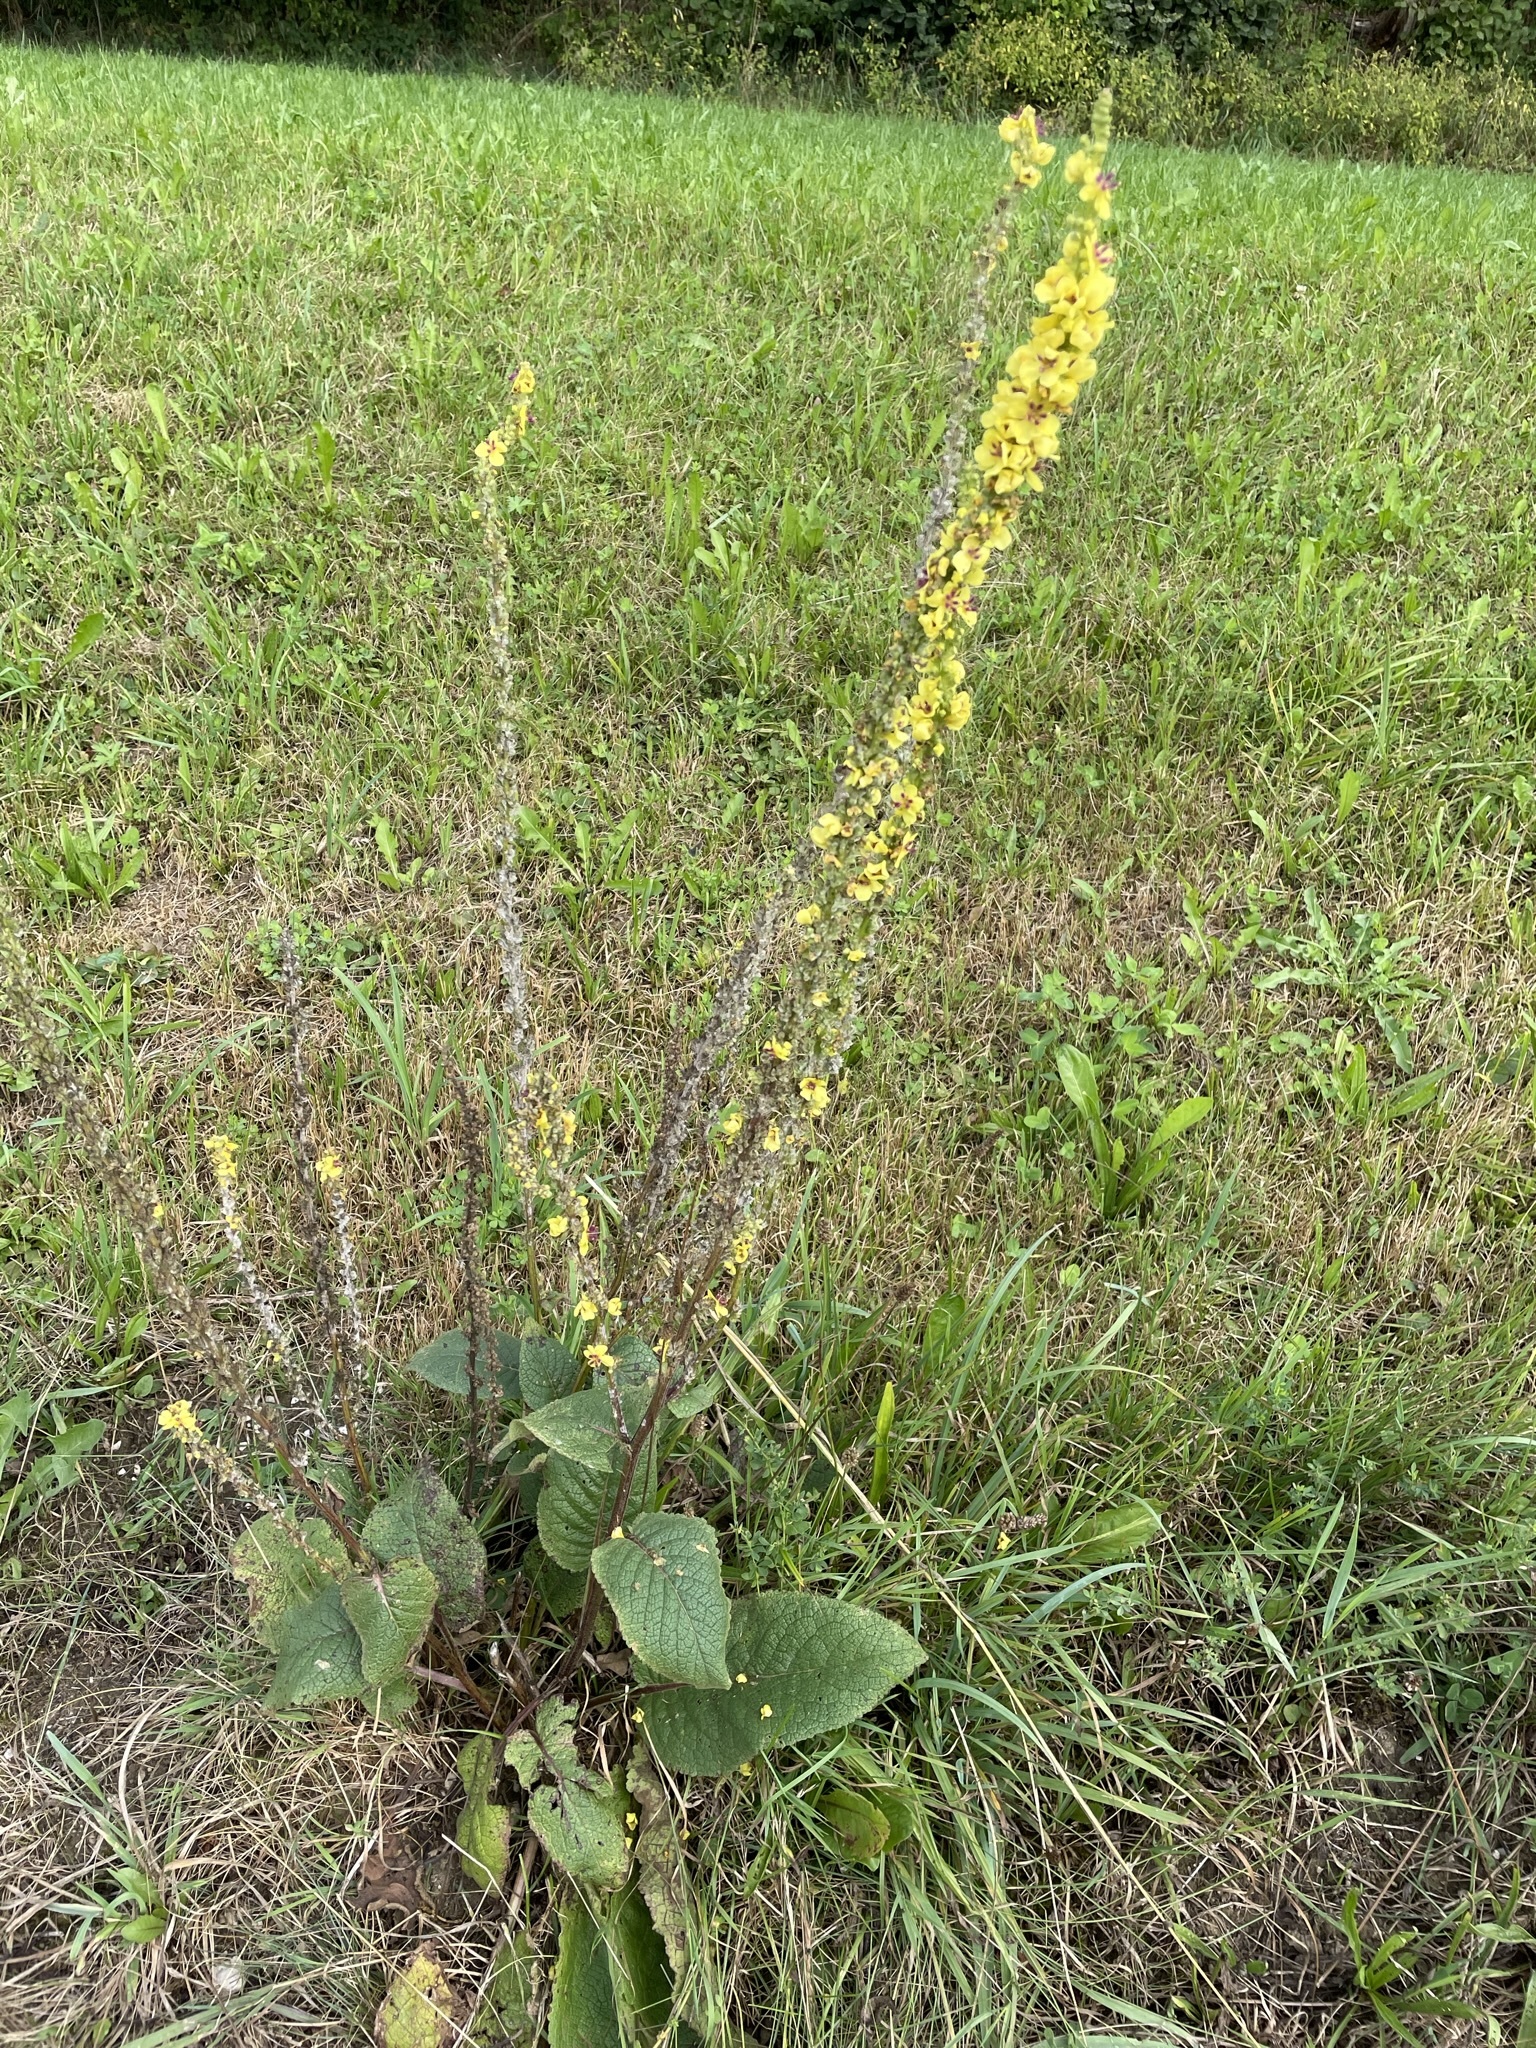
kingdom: Plantae
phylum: Tracheophyta
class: Magnoliopsida
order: Lamiales
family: Scrophulariaceae
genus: Verbascum
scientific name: Verbascum nigrum
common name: Dark mullein
